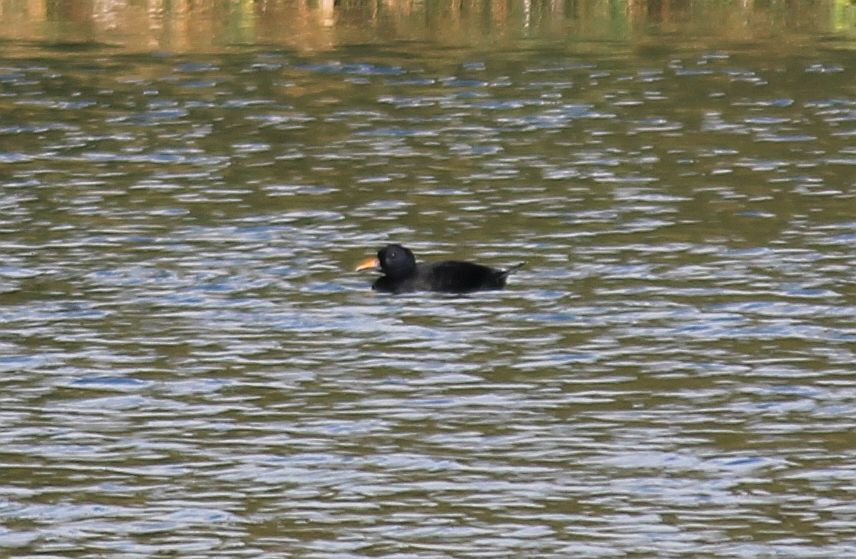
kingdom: Animalia
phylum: Chordata
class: Aves
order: Anseriformes
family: Anatidae
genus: Melanitta
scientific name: Melanitta nigra
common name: Common scoter
